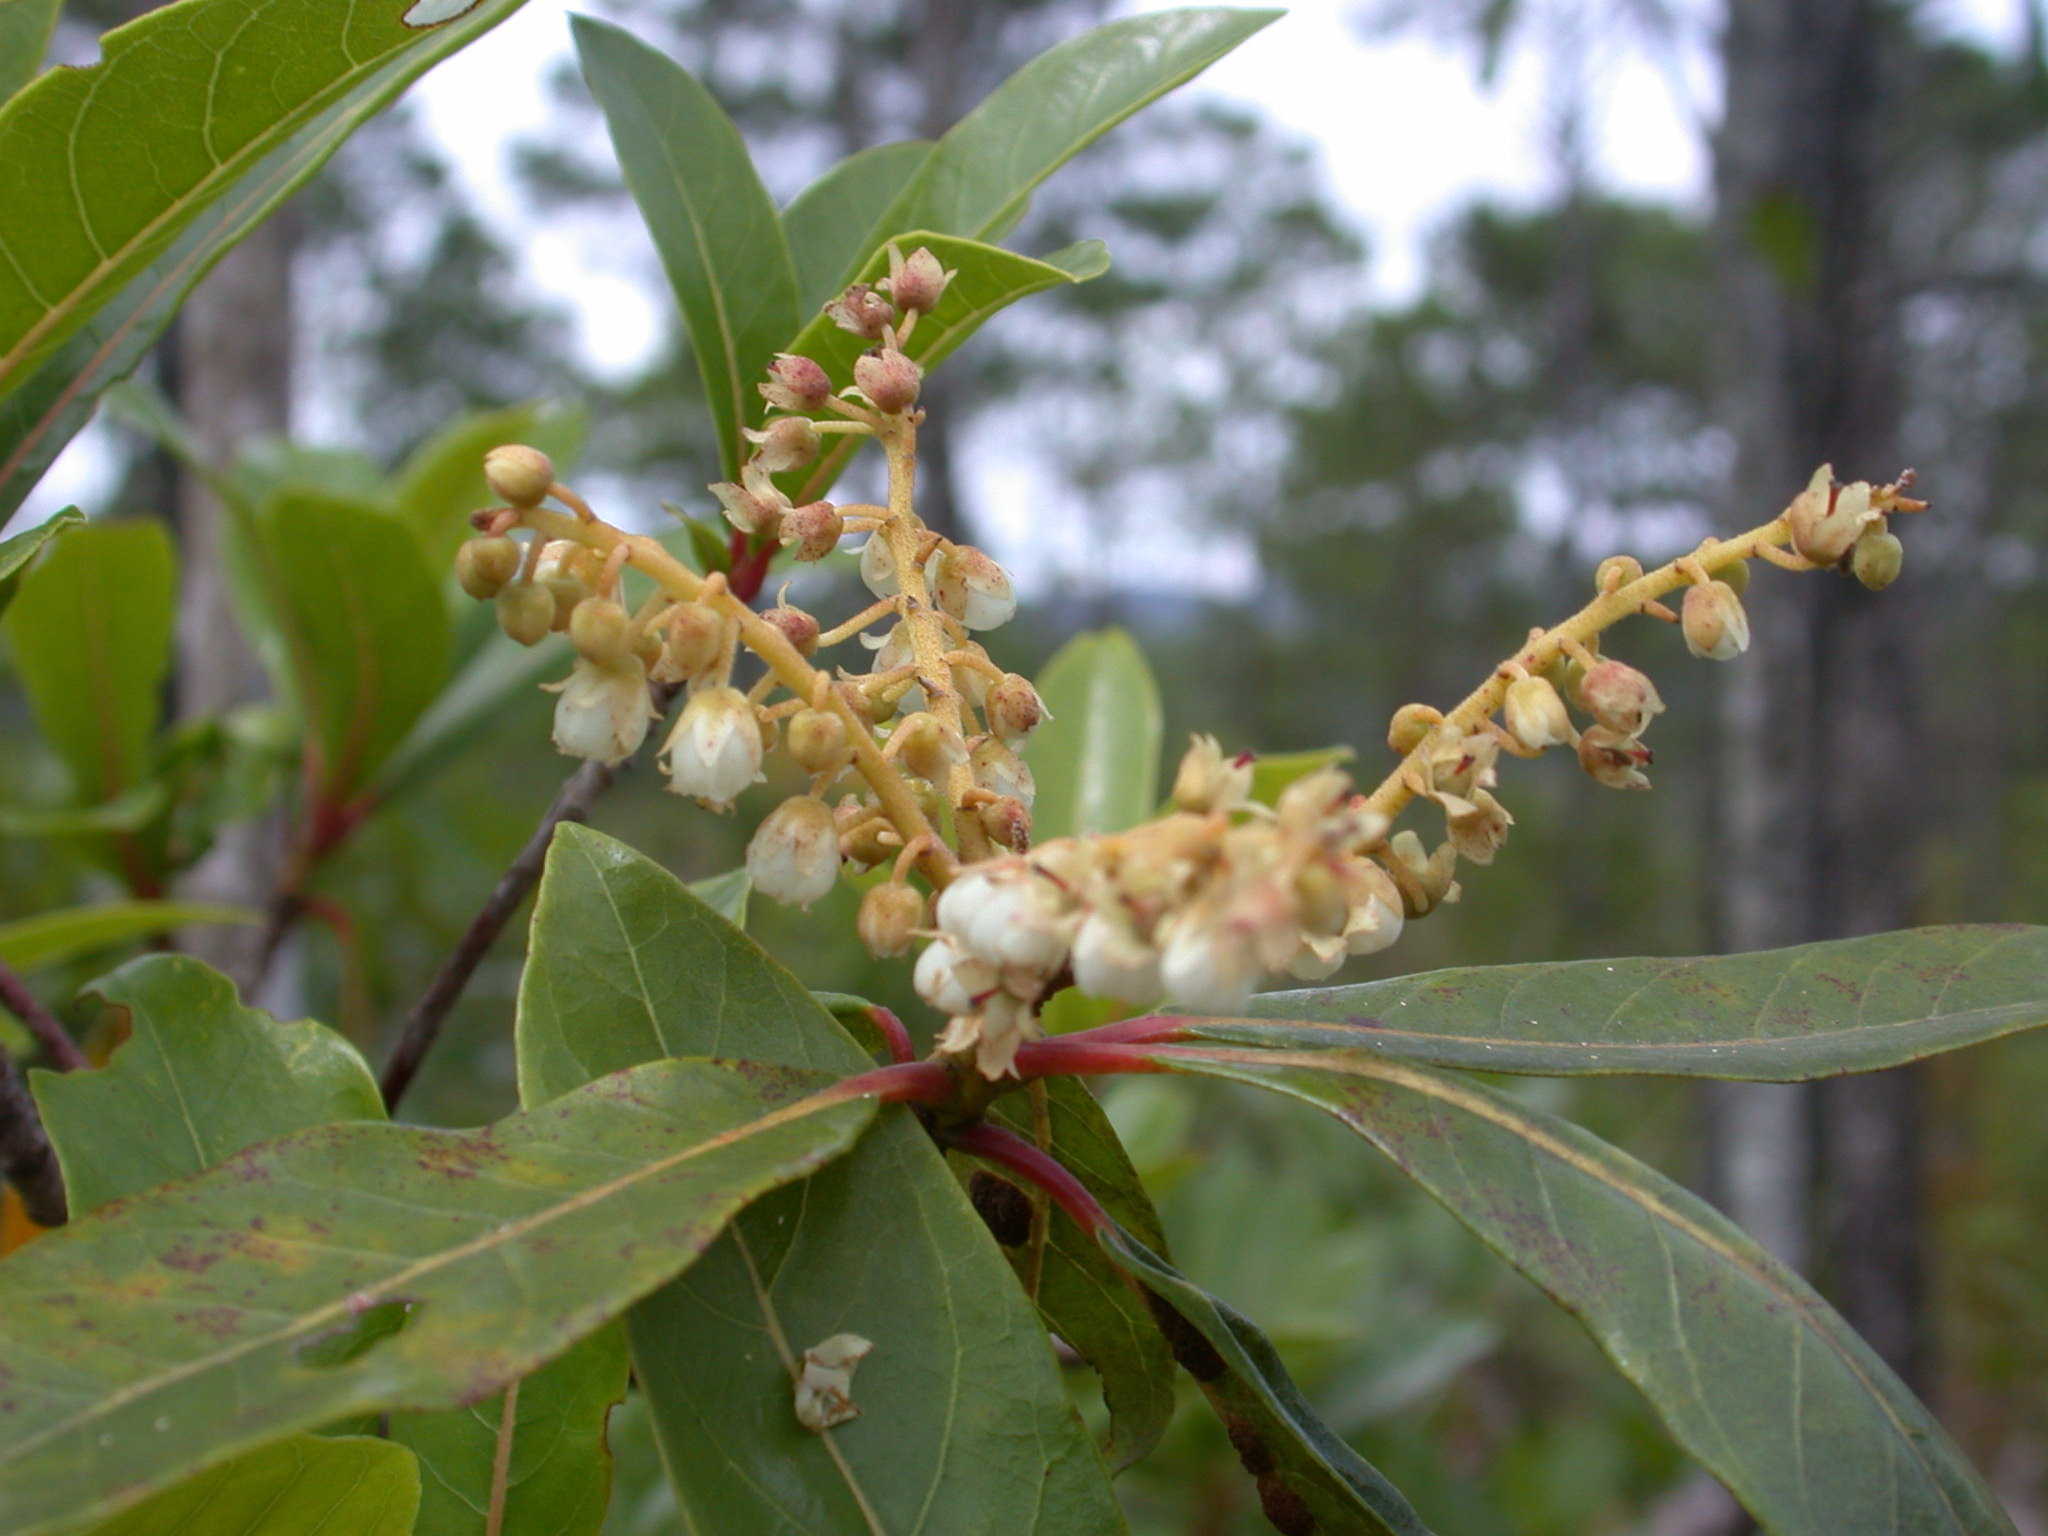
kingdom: Plantae
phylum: Tracheophyta
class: Magnoliopsida
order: Ericales
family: Clethraceae
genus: Clethra
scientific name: Clethra suaveolens
